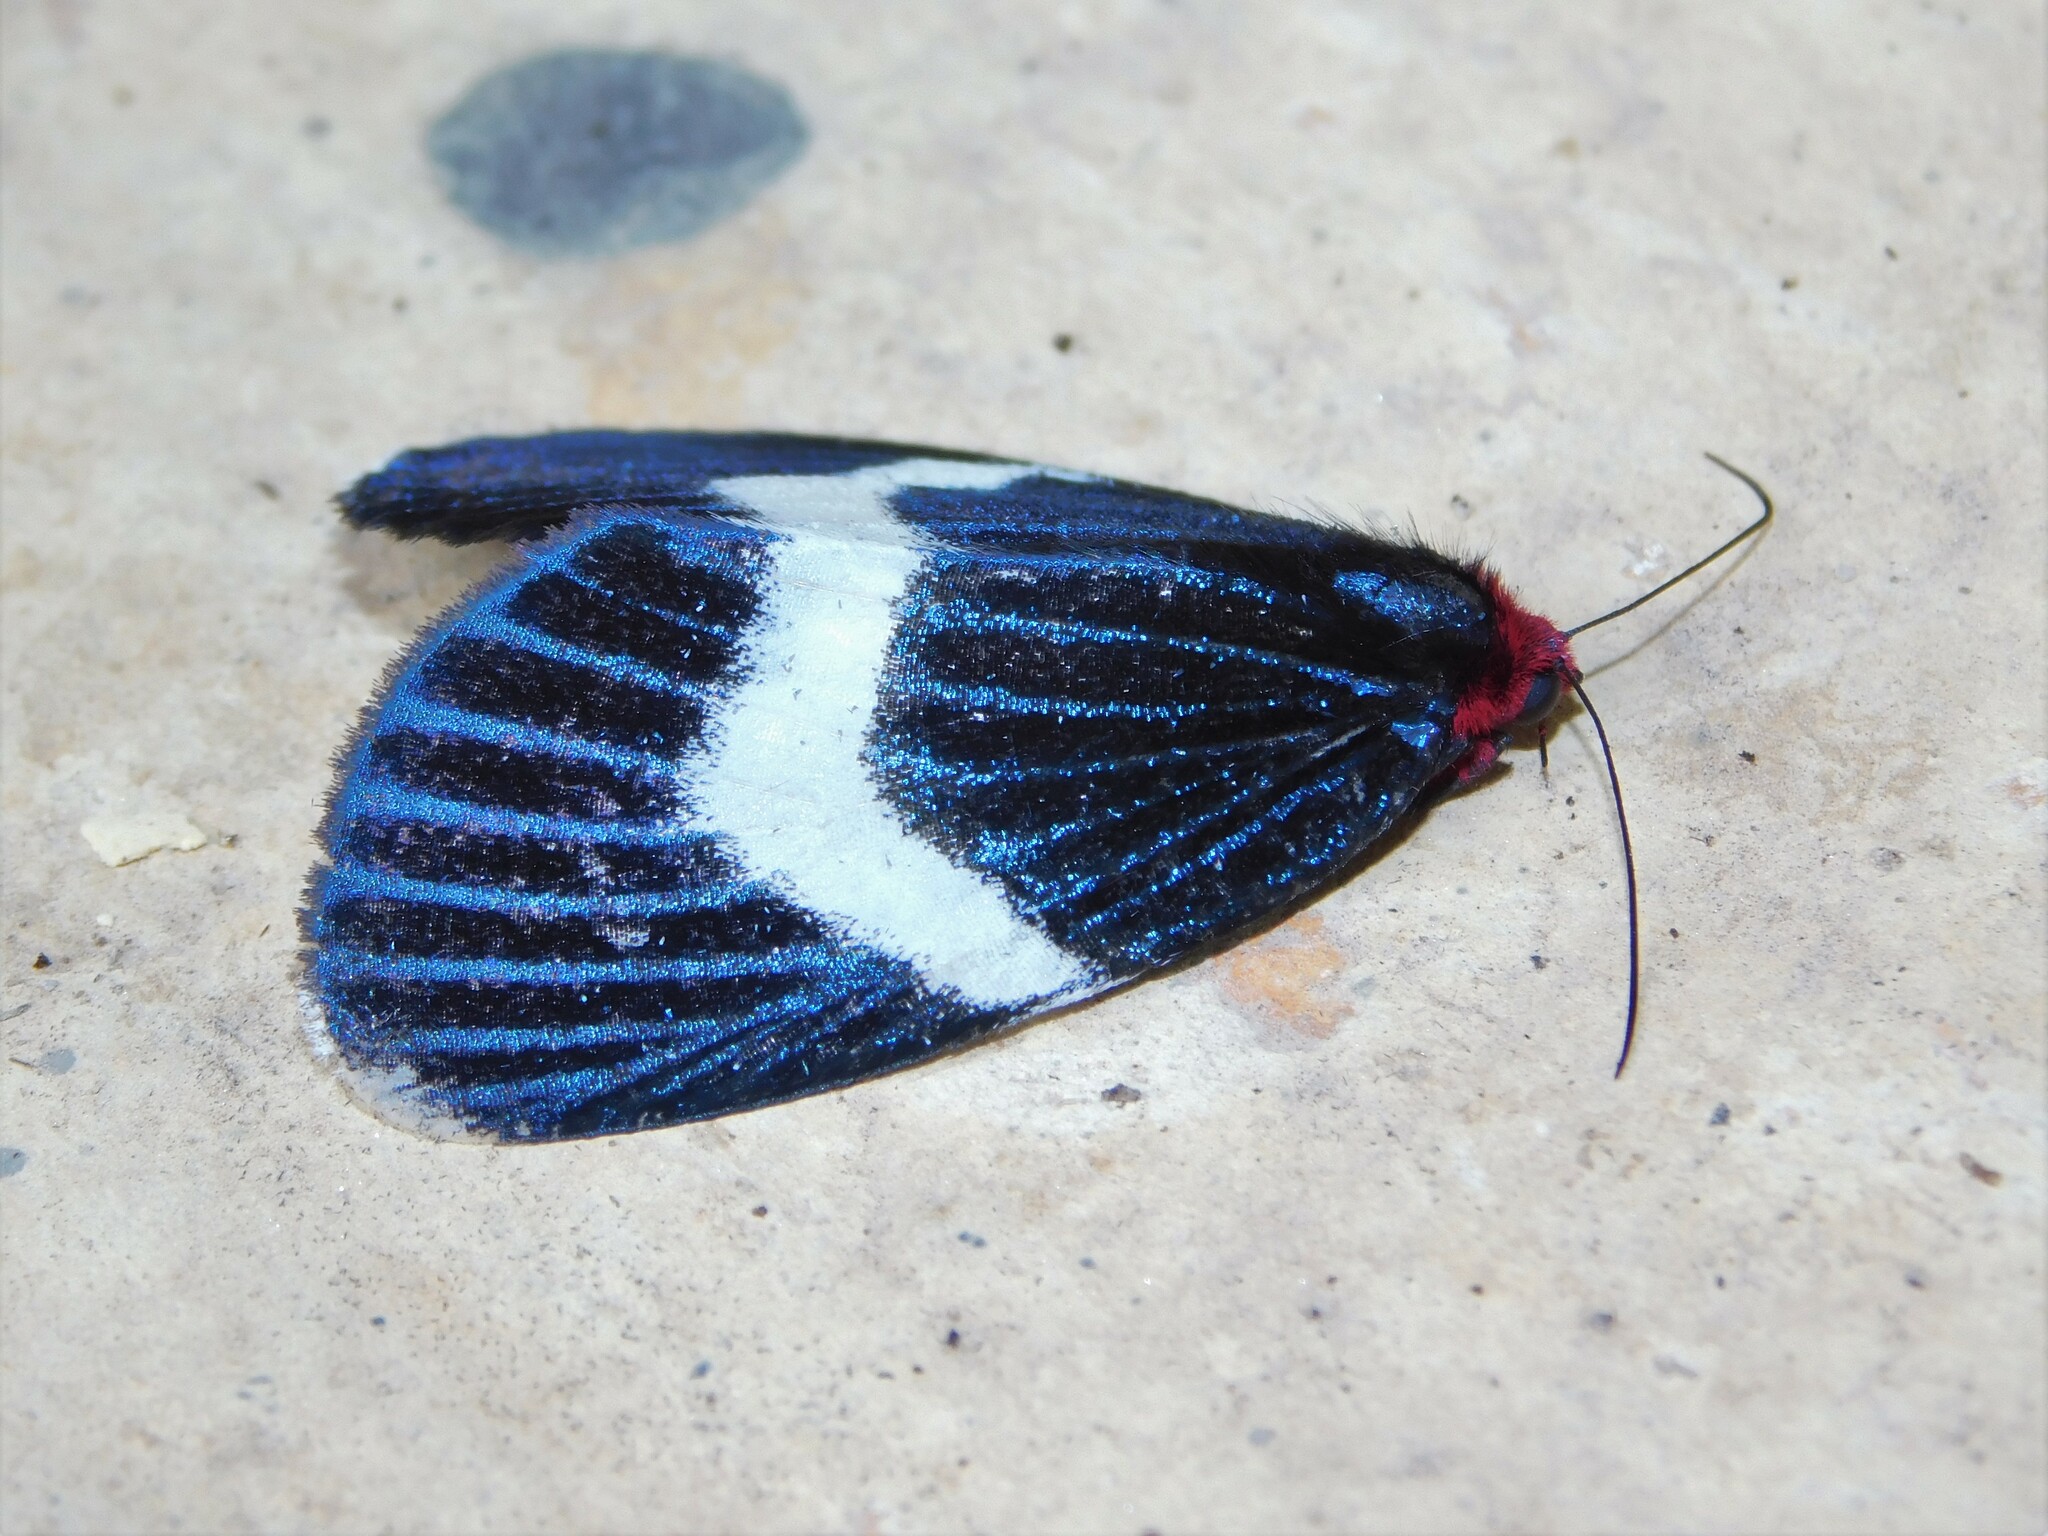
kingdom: Animalia
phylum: Arthropoda
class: Insecta
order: Lepidoptera
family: Noctuidae
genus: Massaga
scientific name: Massaga hesparia
